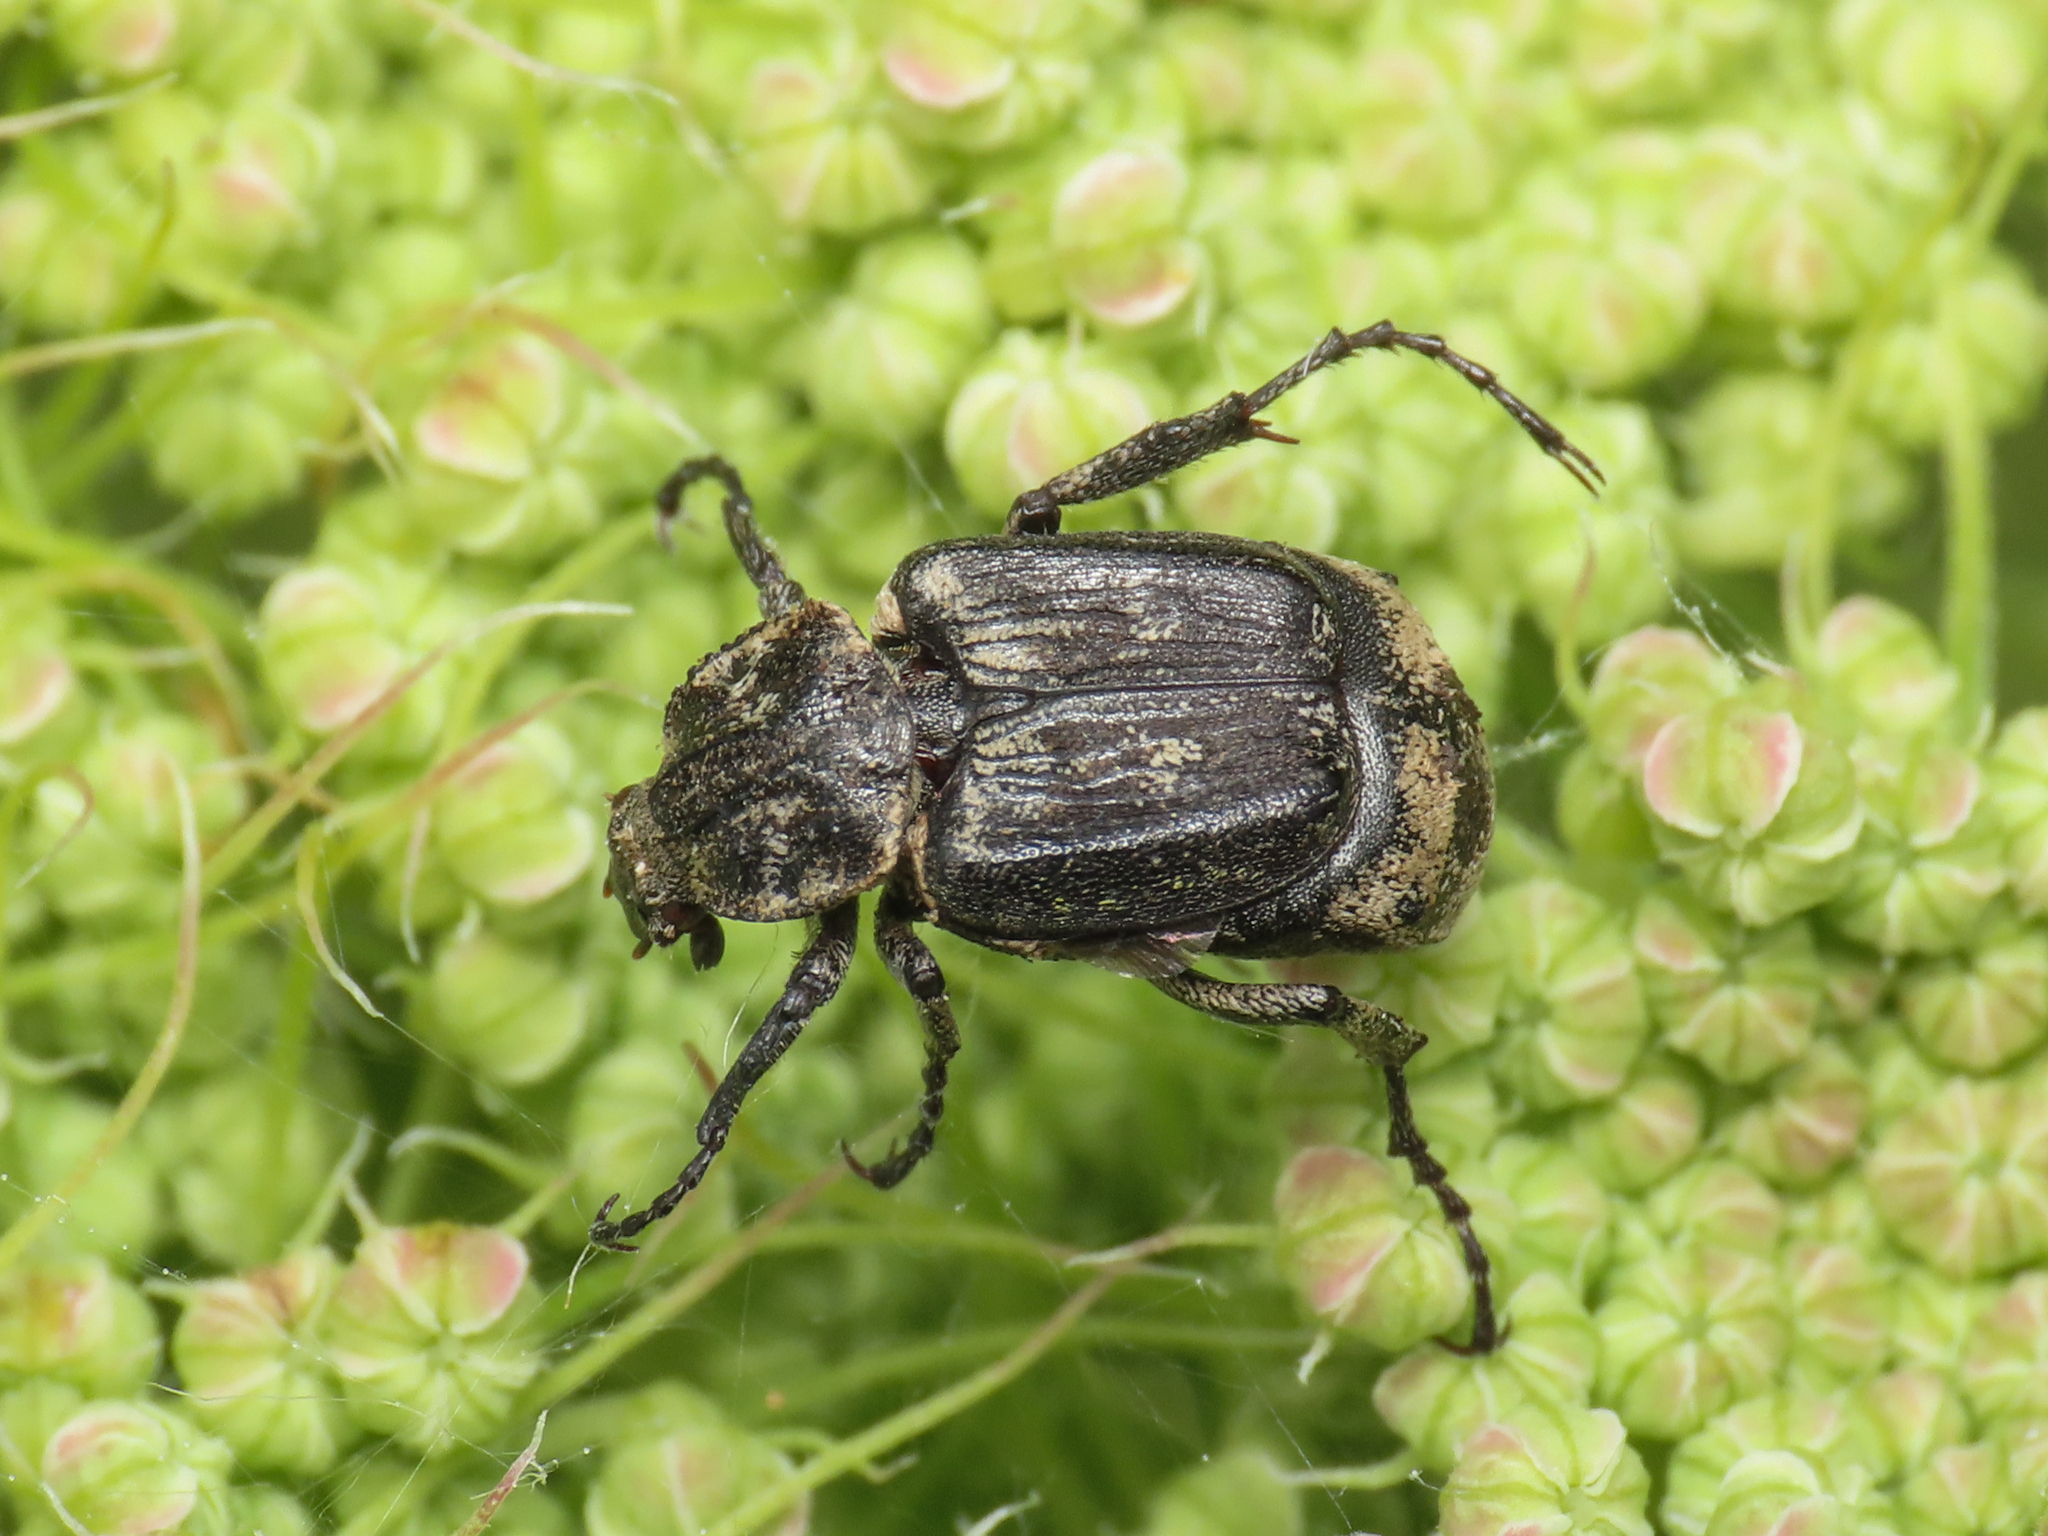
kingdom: Animalia
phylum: Arthropoda
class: Insecta
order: Coleoptera
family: Scarabaeidae
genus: Valgus
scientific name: Valgus hemipterus
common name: Bug flower chafer
